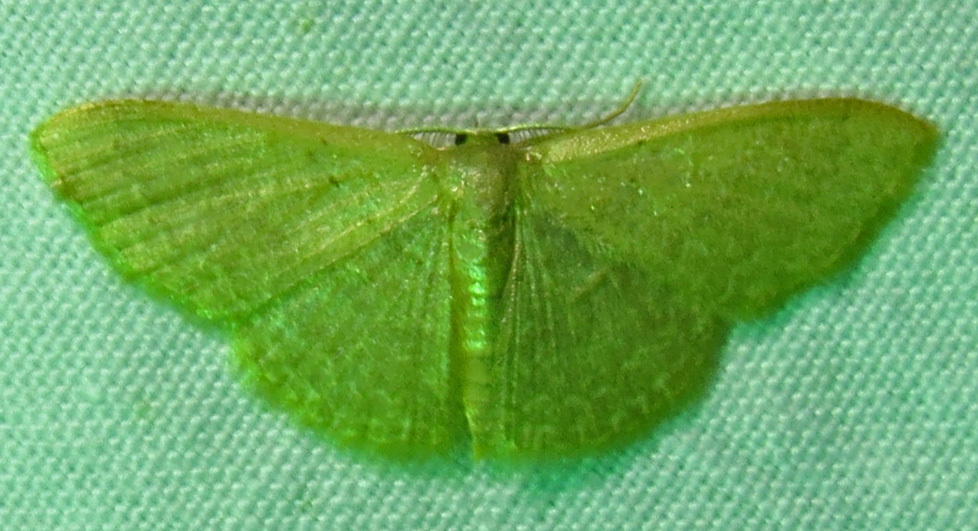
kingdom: Animalia
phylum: Arthropoda
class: Insecta
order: Lepidoptera
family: Geometridae
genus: Pleuroprucha
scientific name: Pleuroprucha insulsaria
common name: Common tan wave
